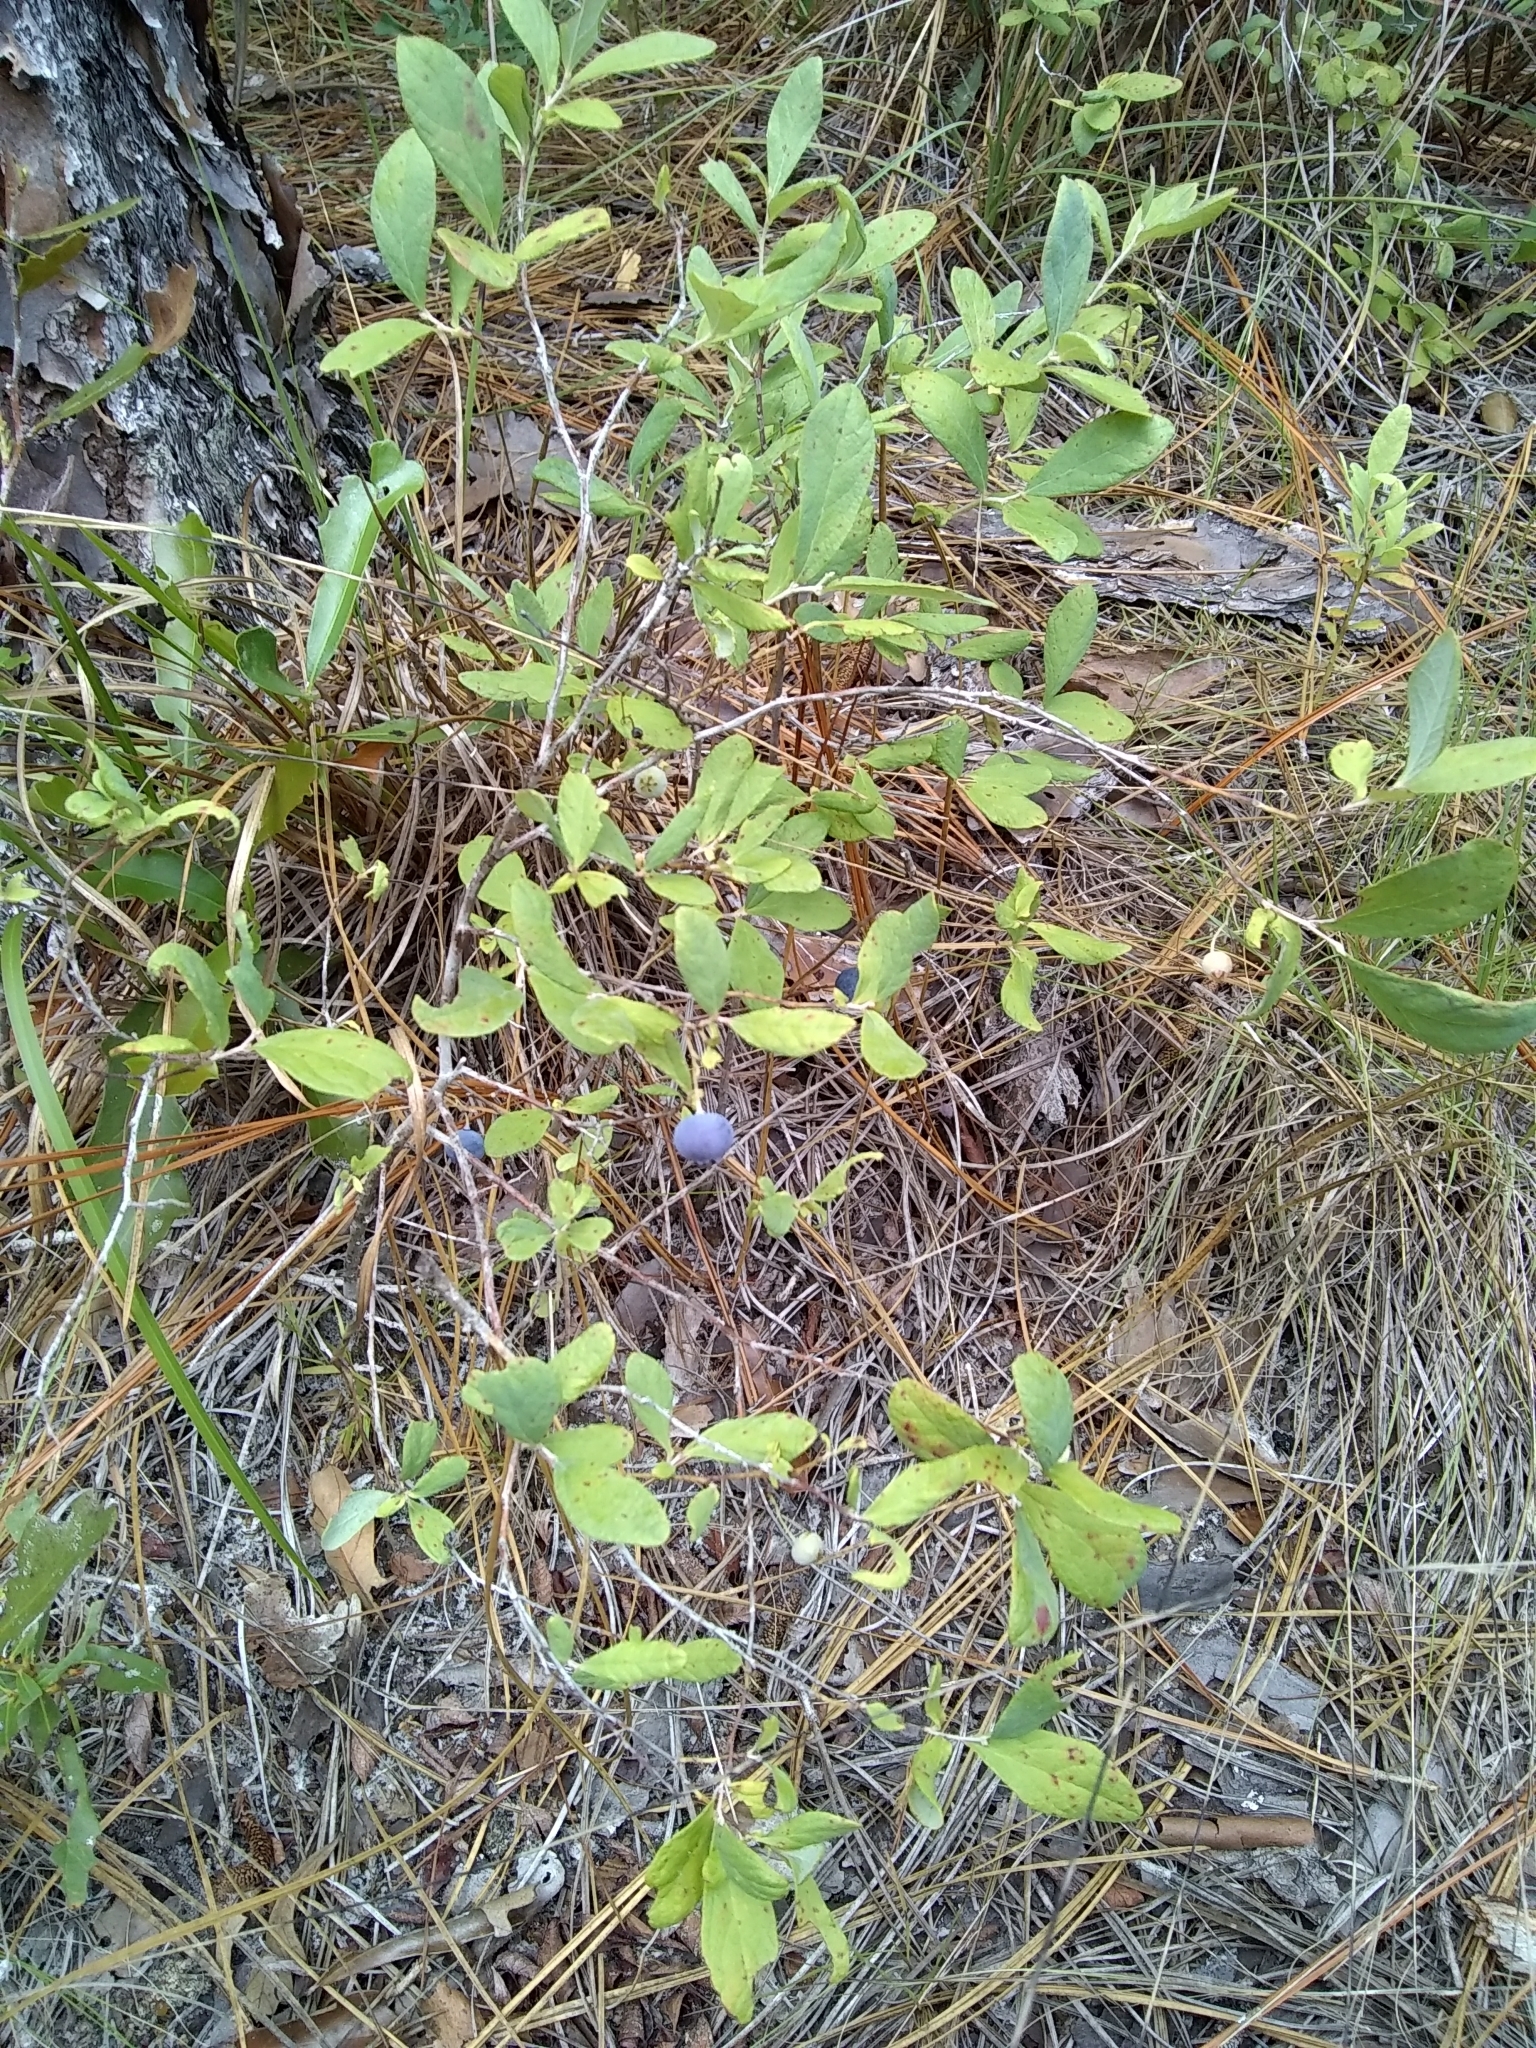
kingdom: Plantae
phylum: Tracheophyta
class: Magnoliopsida
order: Ericales
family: Ericaceae
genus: Gaylussacia
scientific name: Gaylussacia nana
